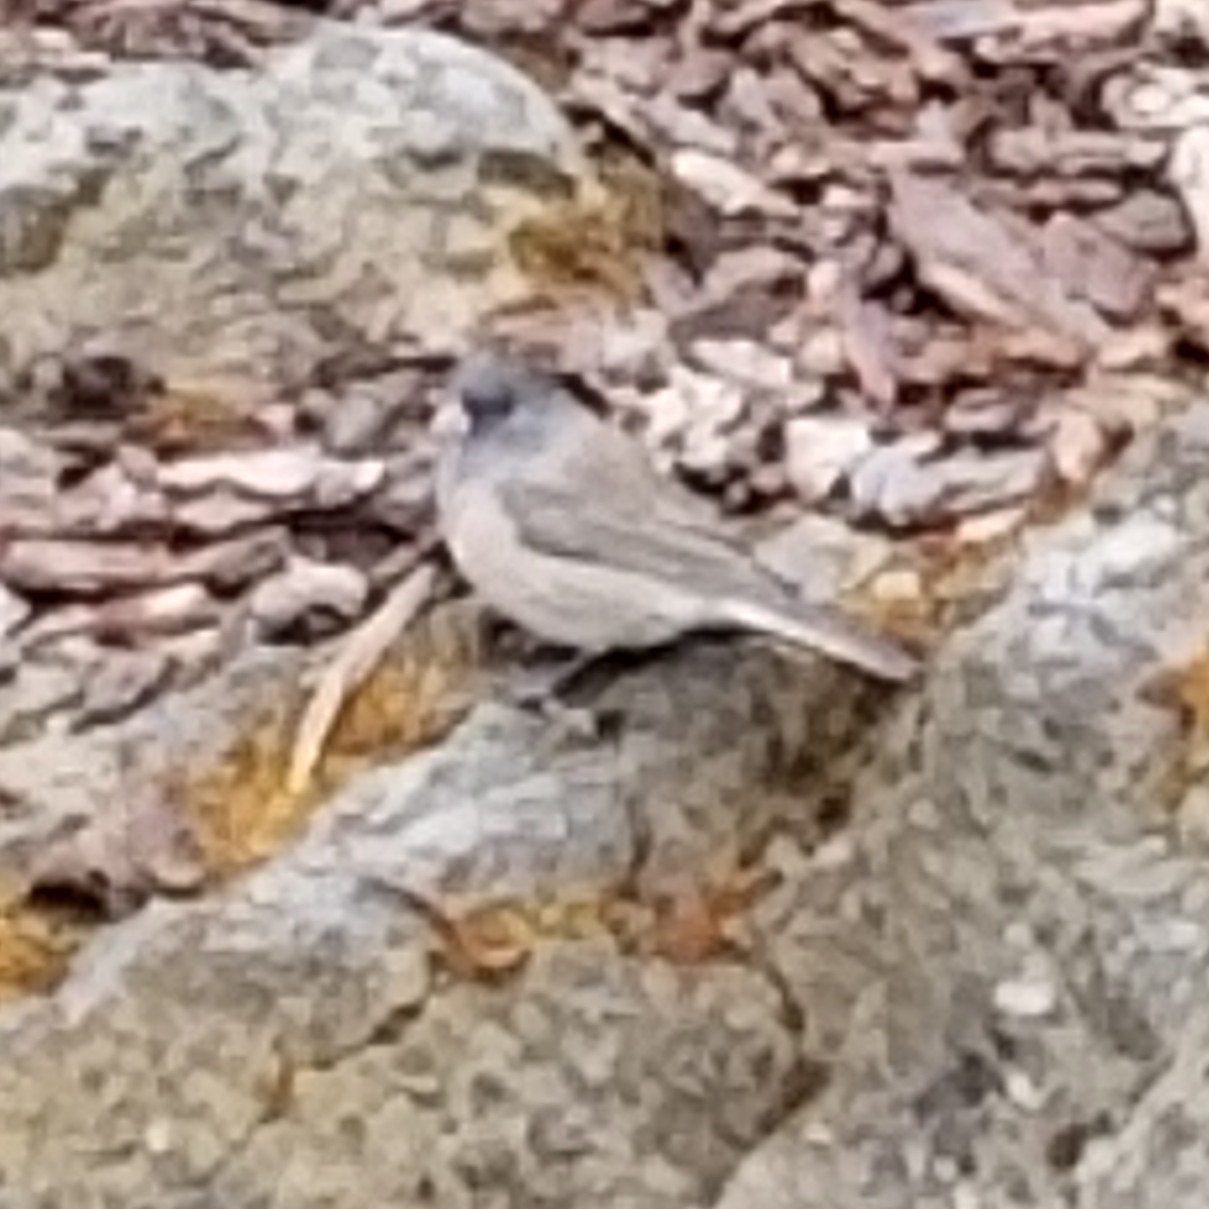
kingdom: Animalia
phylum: Chordata
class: Aves
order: Passeriformes
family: Passerellidae
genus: Junco
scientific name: Junco hyemalis
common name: Dark-eyed junco
